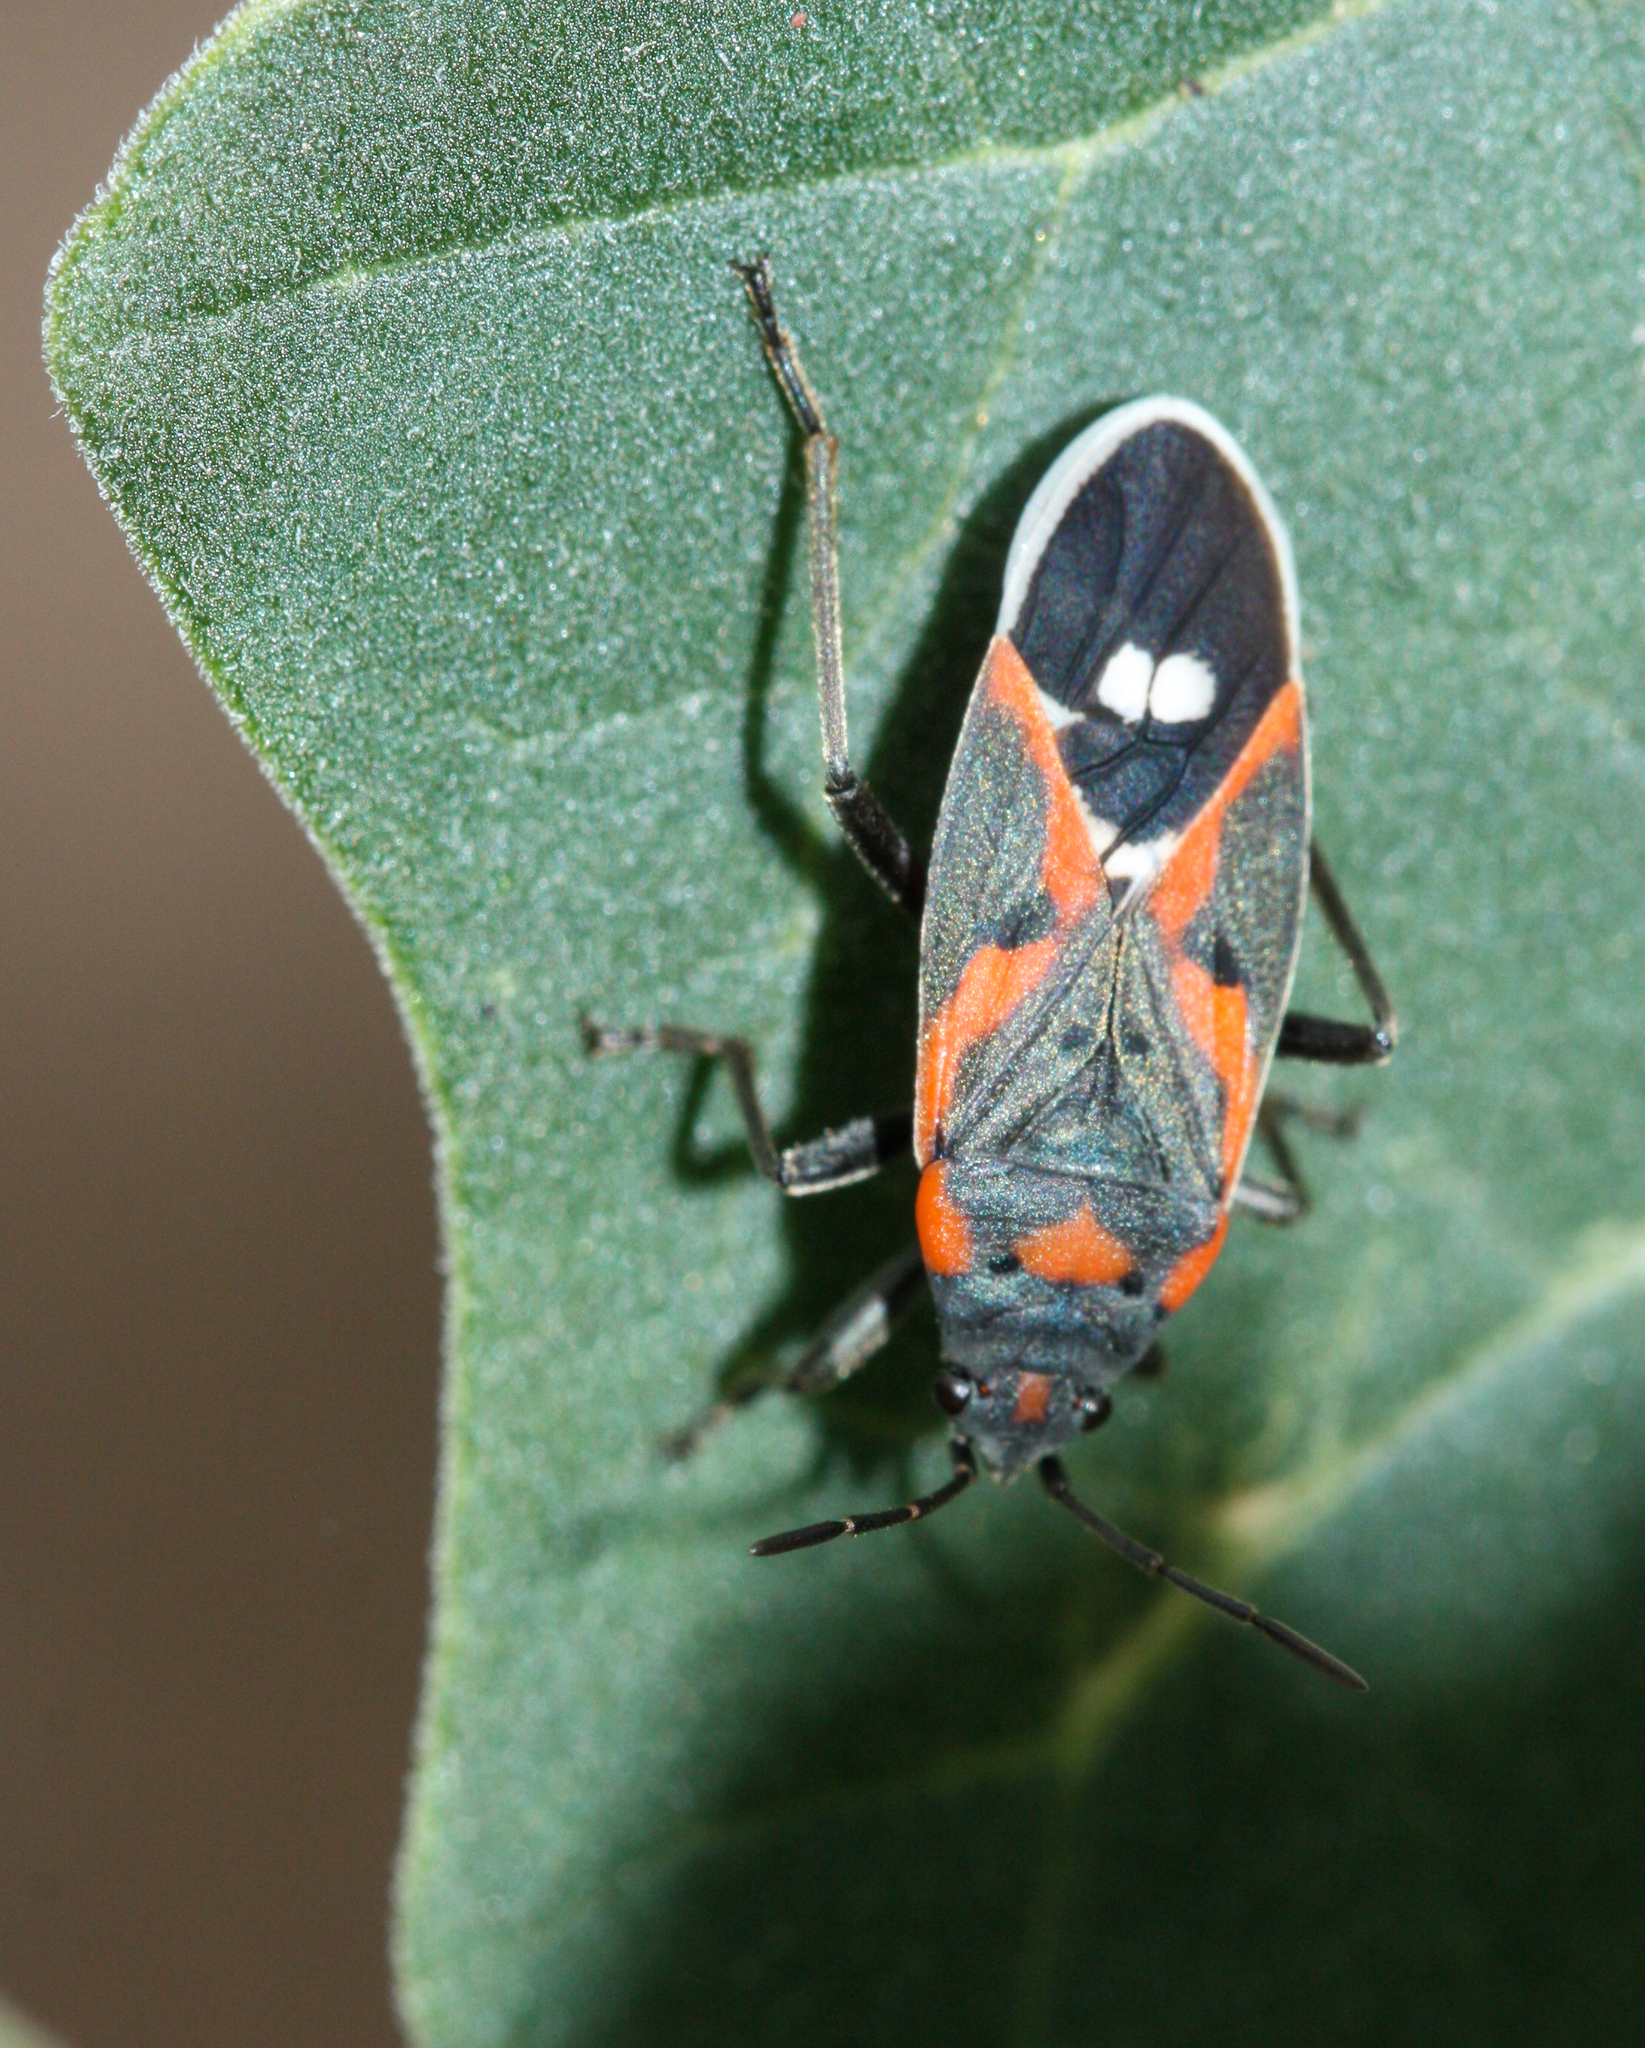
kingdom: Animalia
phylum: Arthropoda
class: Insecta
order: Hemiptera
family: Lygaeidae
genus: Lygaeus
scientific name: Lygaeus kalmii
